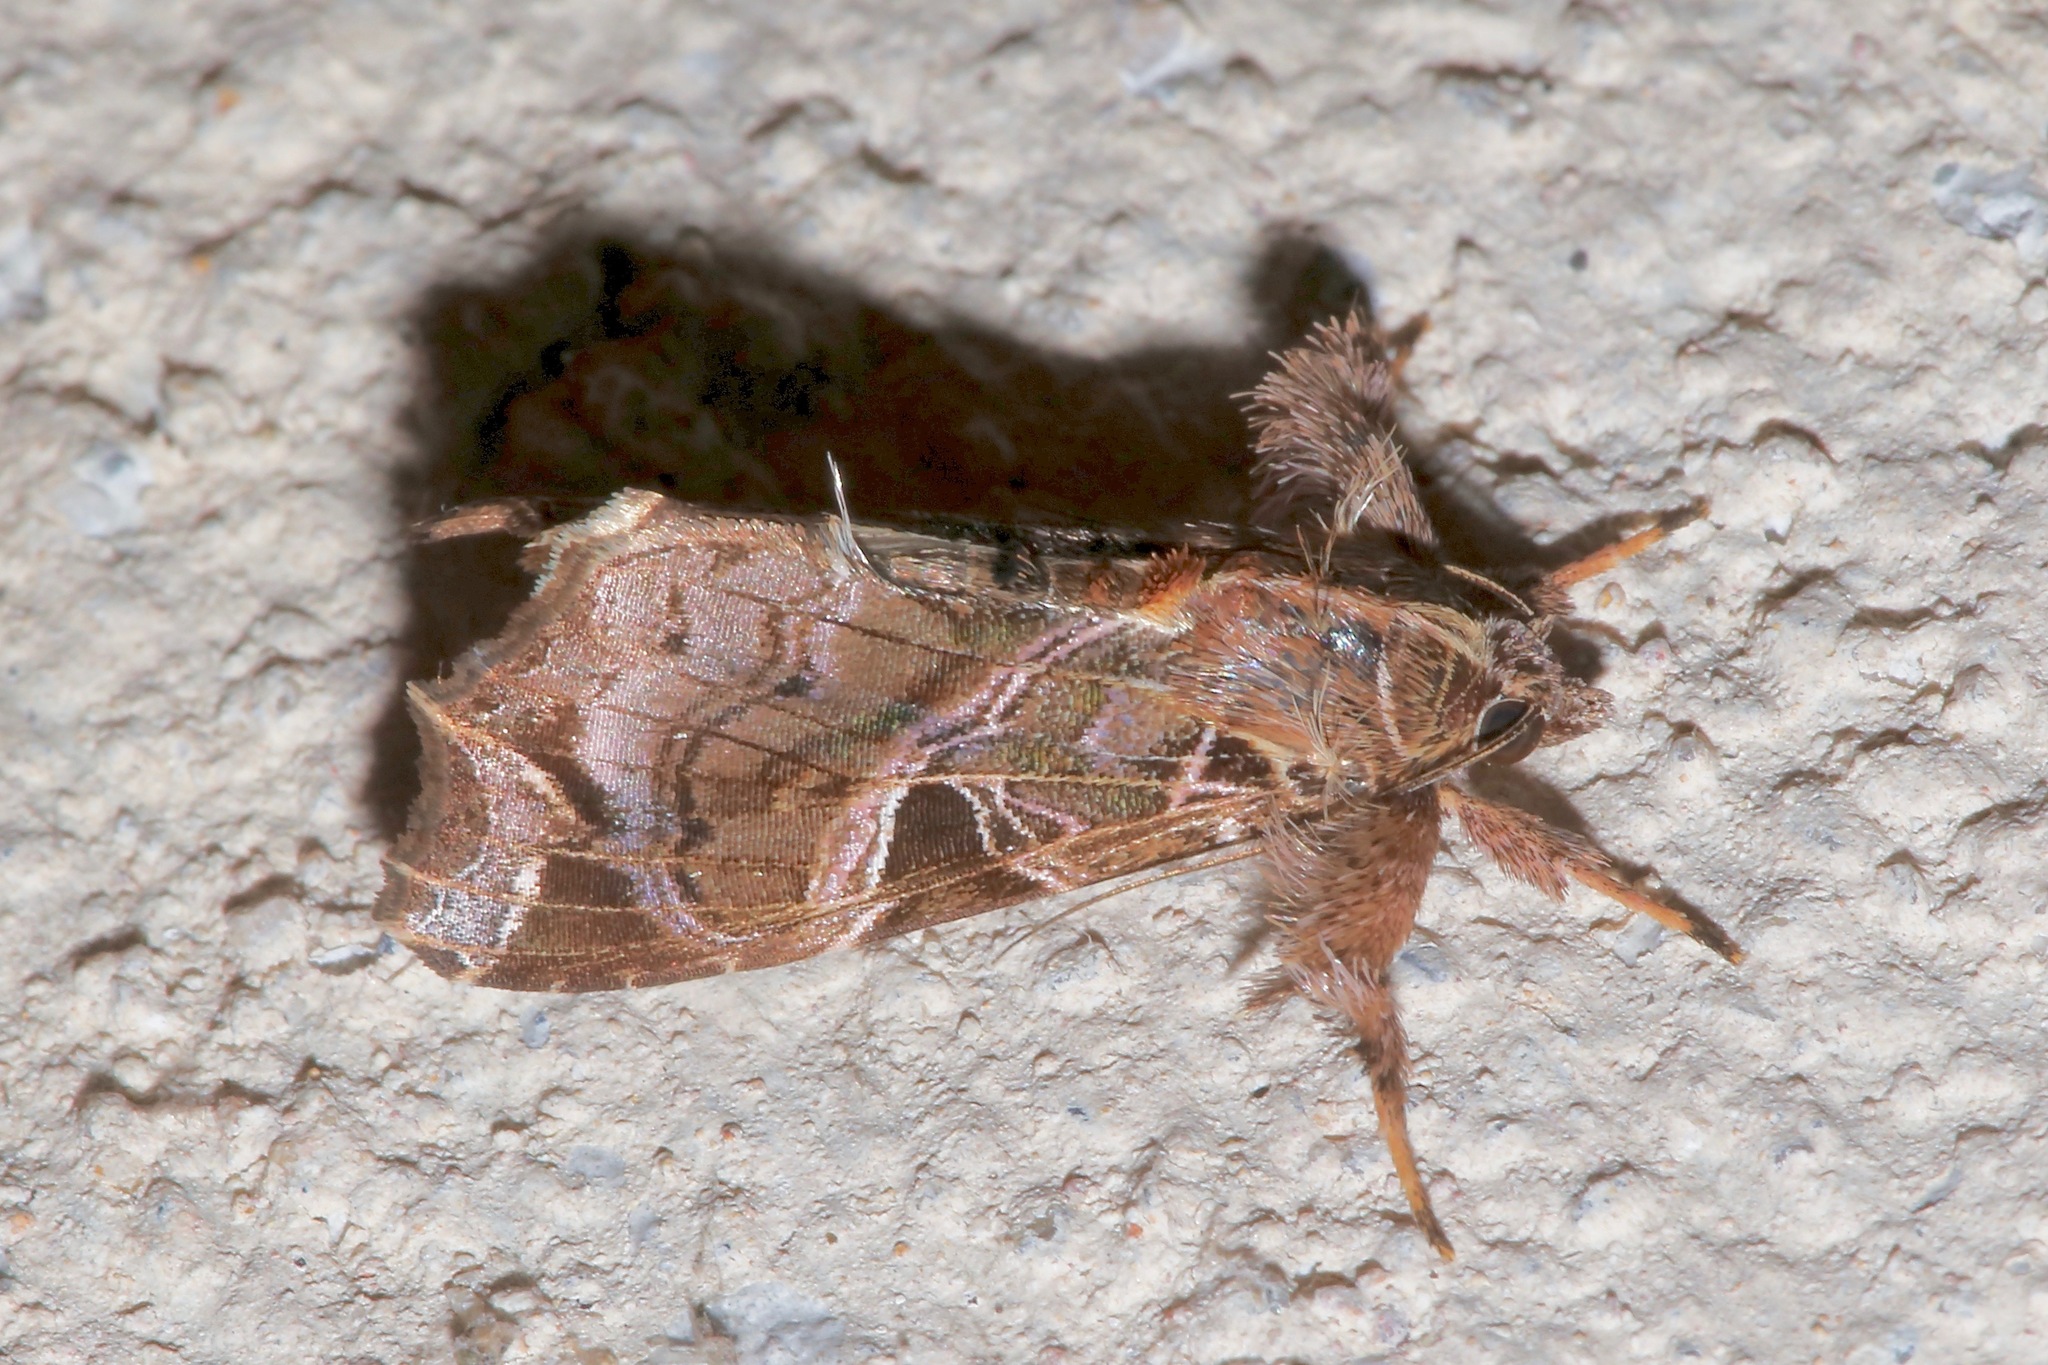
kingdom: Animalia
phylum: Arthropoda
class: Insecta
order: Lepidoptera
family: Noctuidae
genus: Callopistria
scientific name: Callopistria floridensis
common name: Florida fern moth
